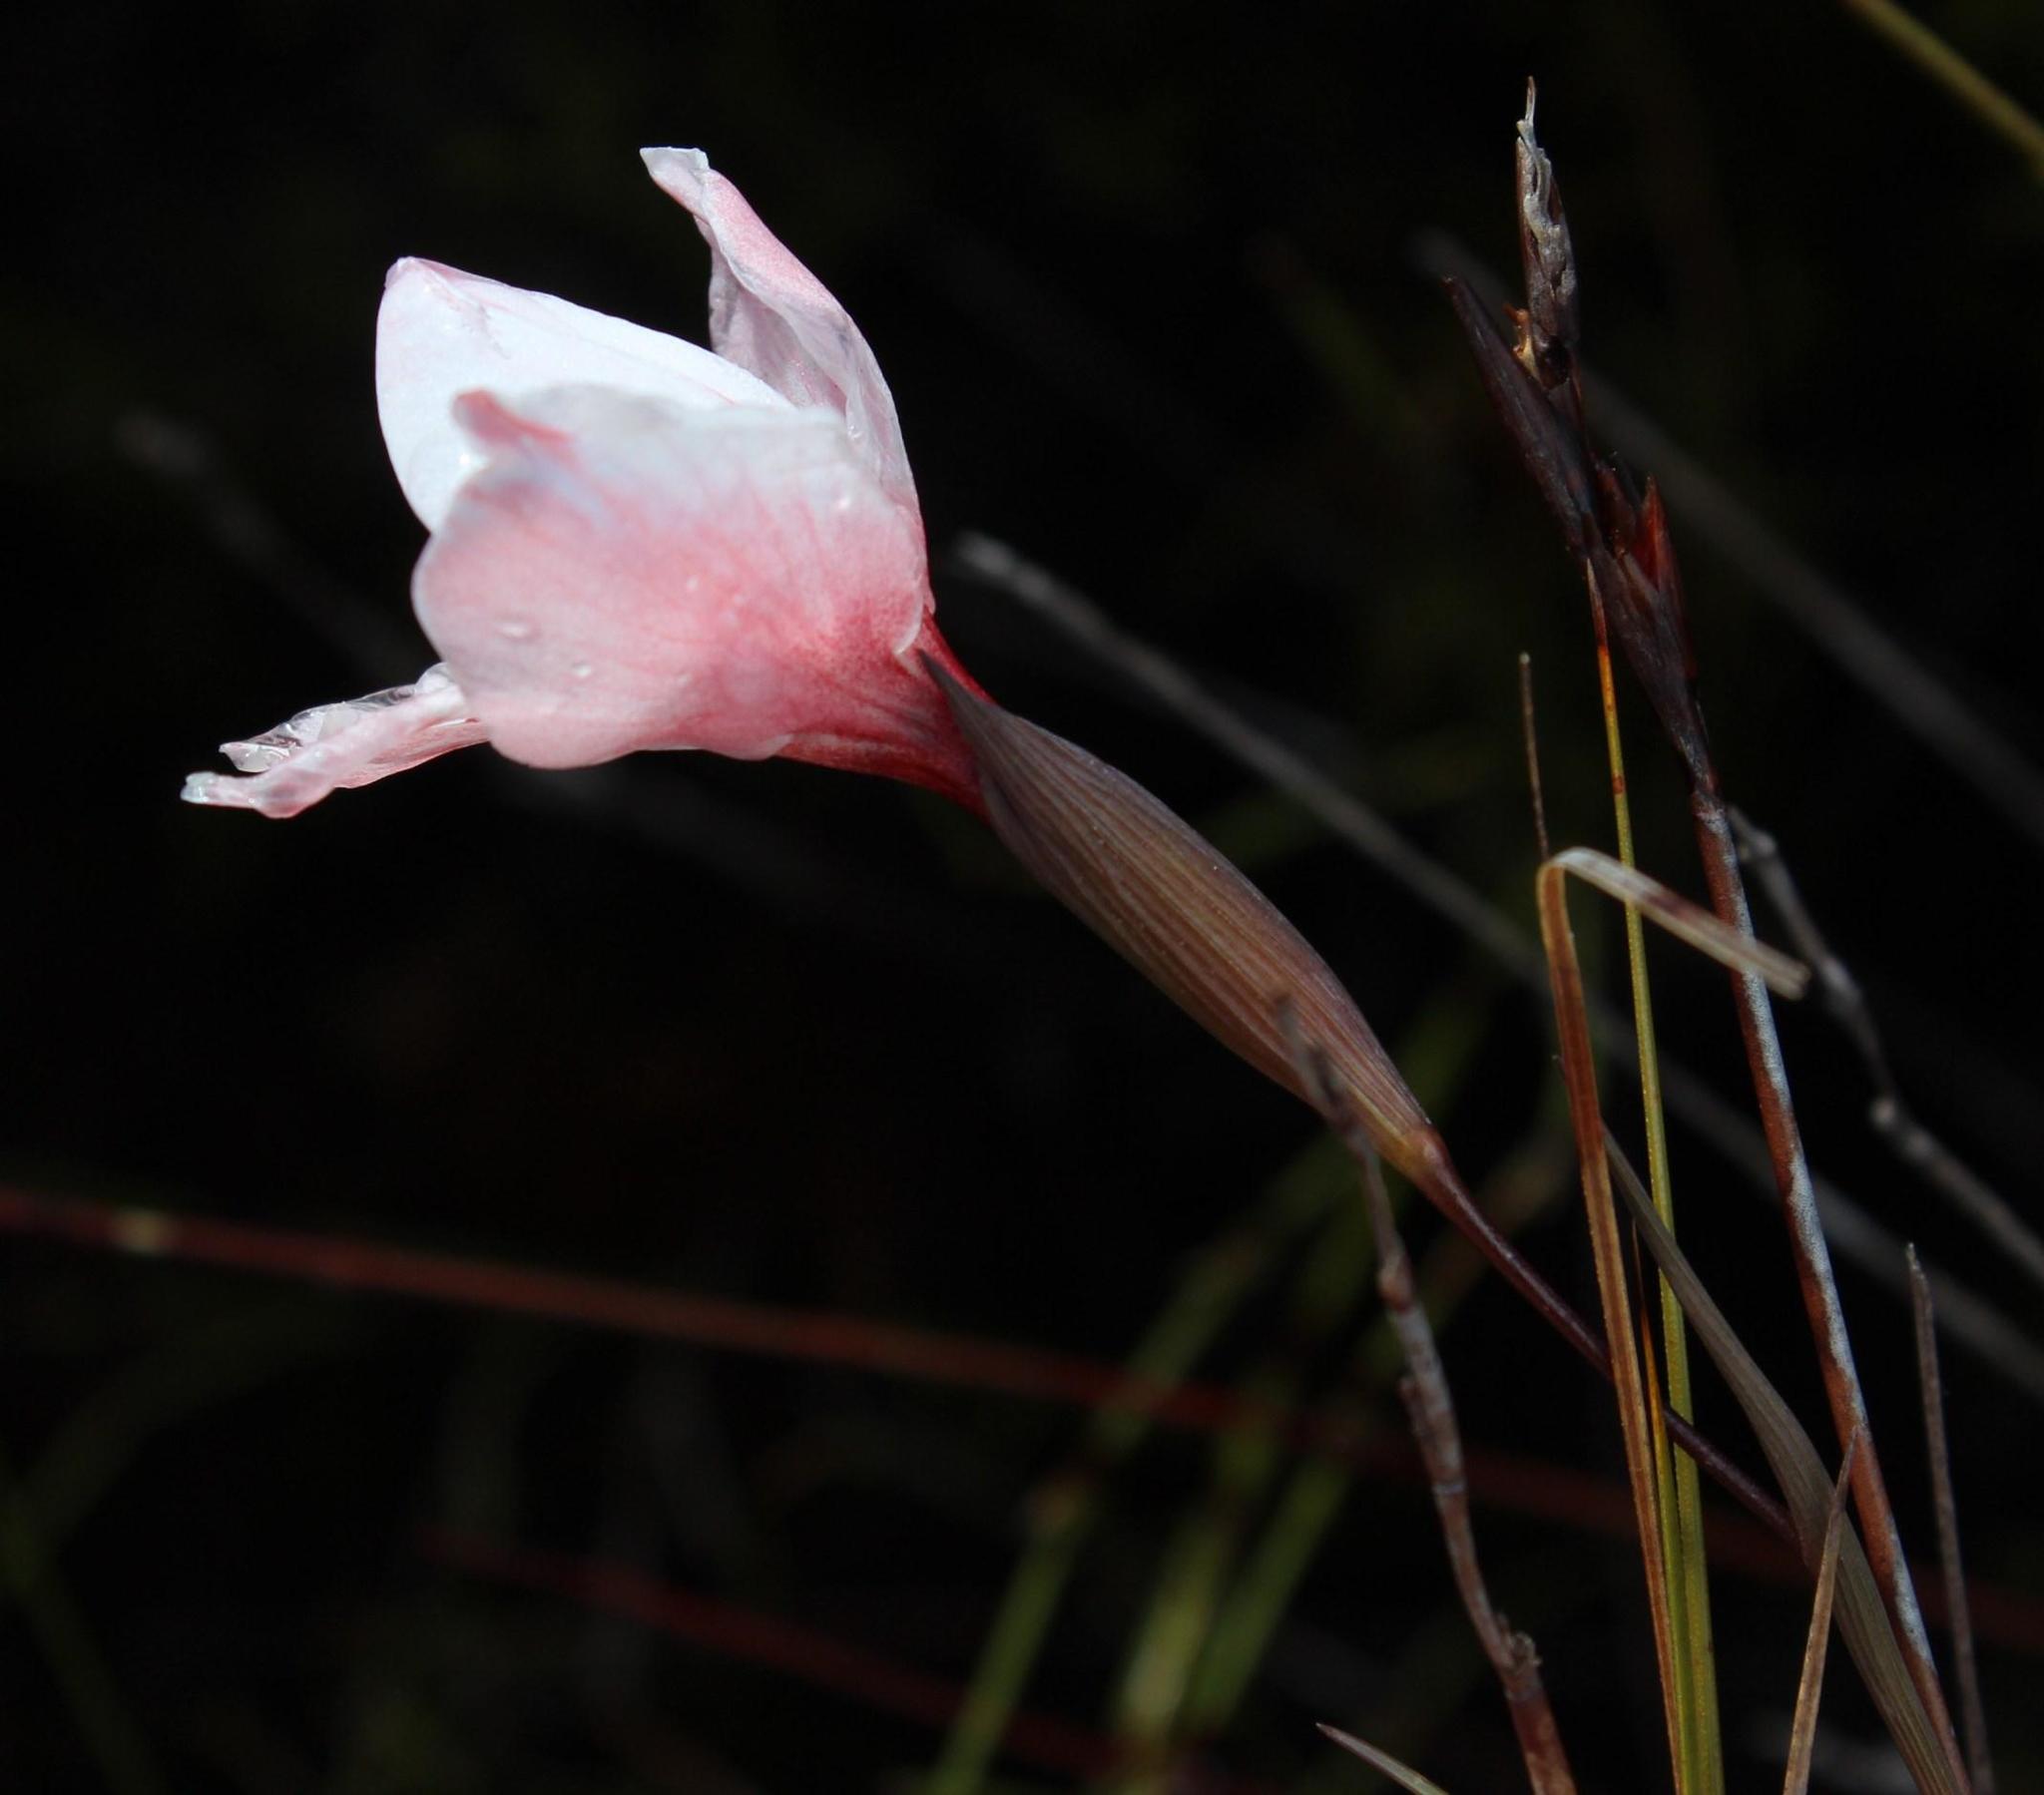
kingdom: Plantae
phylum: Tracheophyta
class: Liliopsida
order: Asparagales
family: Iridaceae
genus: Gladiolus
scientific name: Gladiolus variegatus
